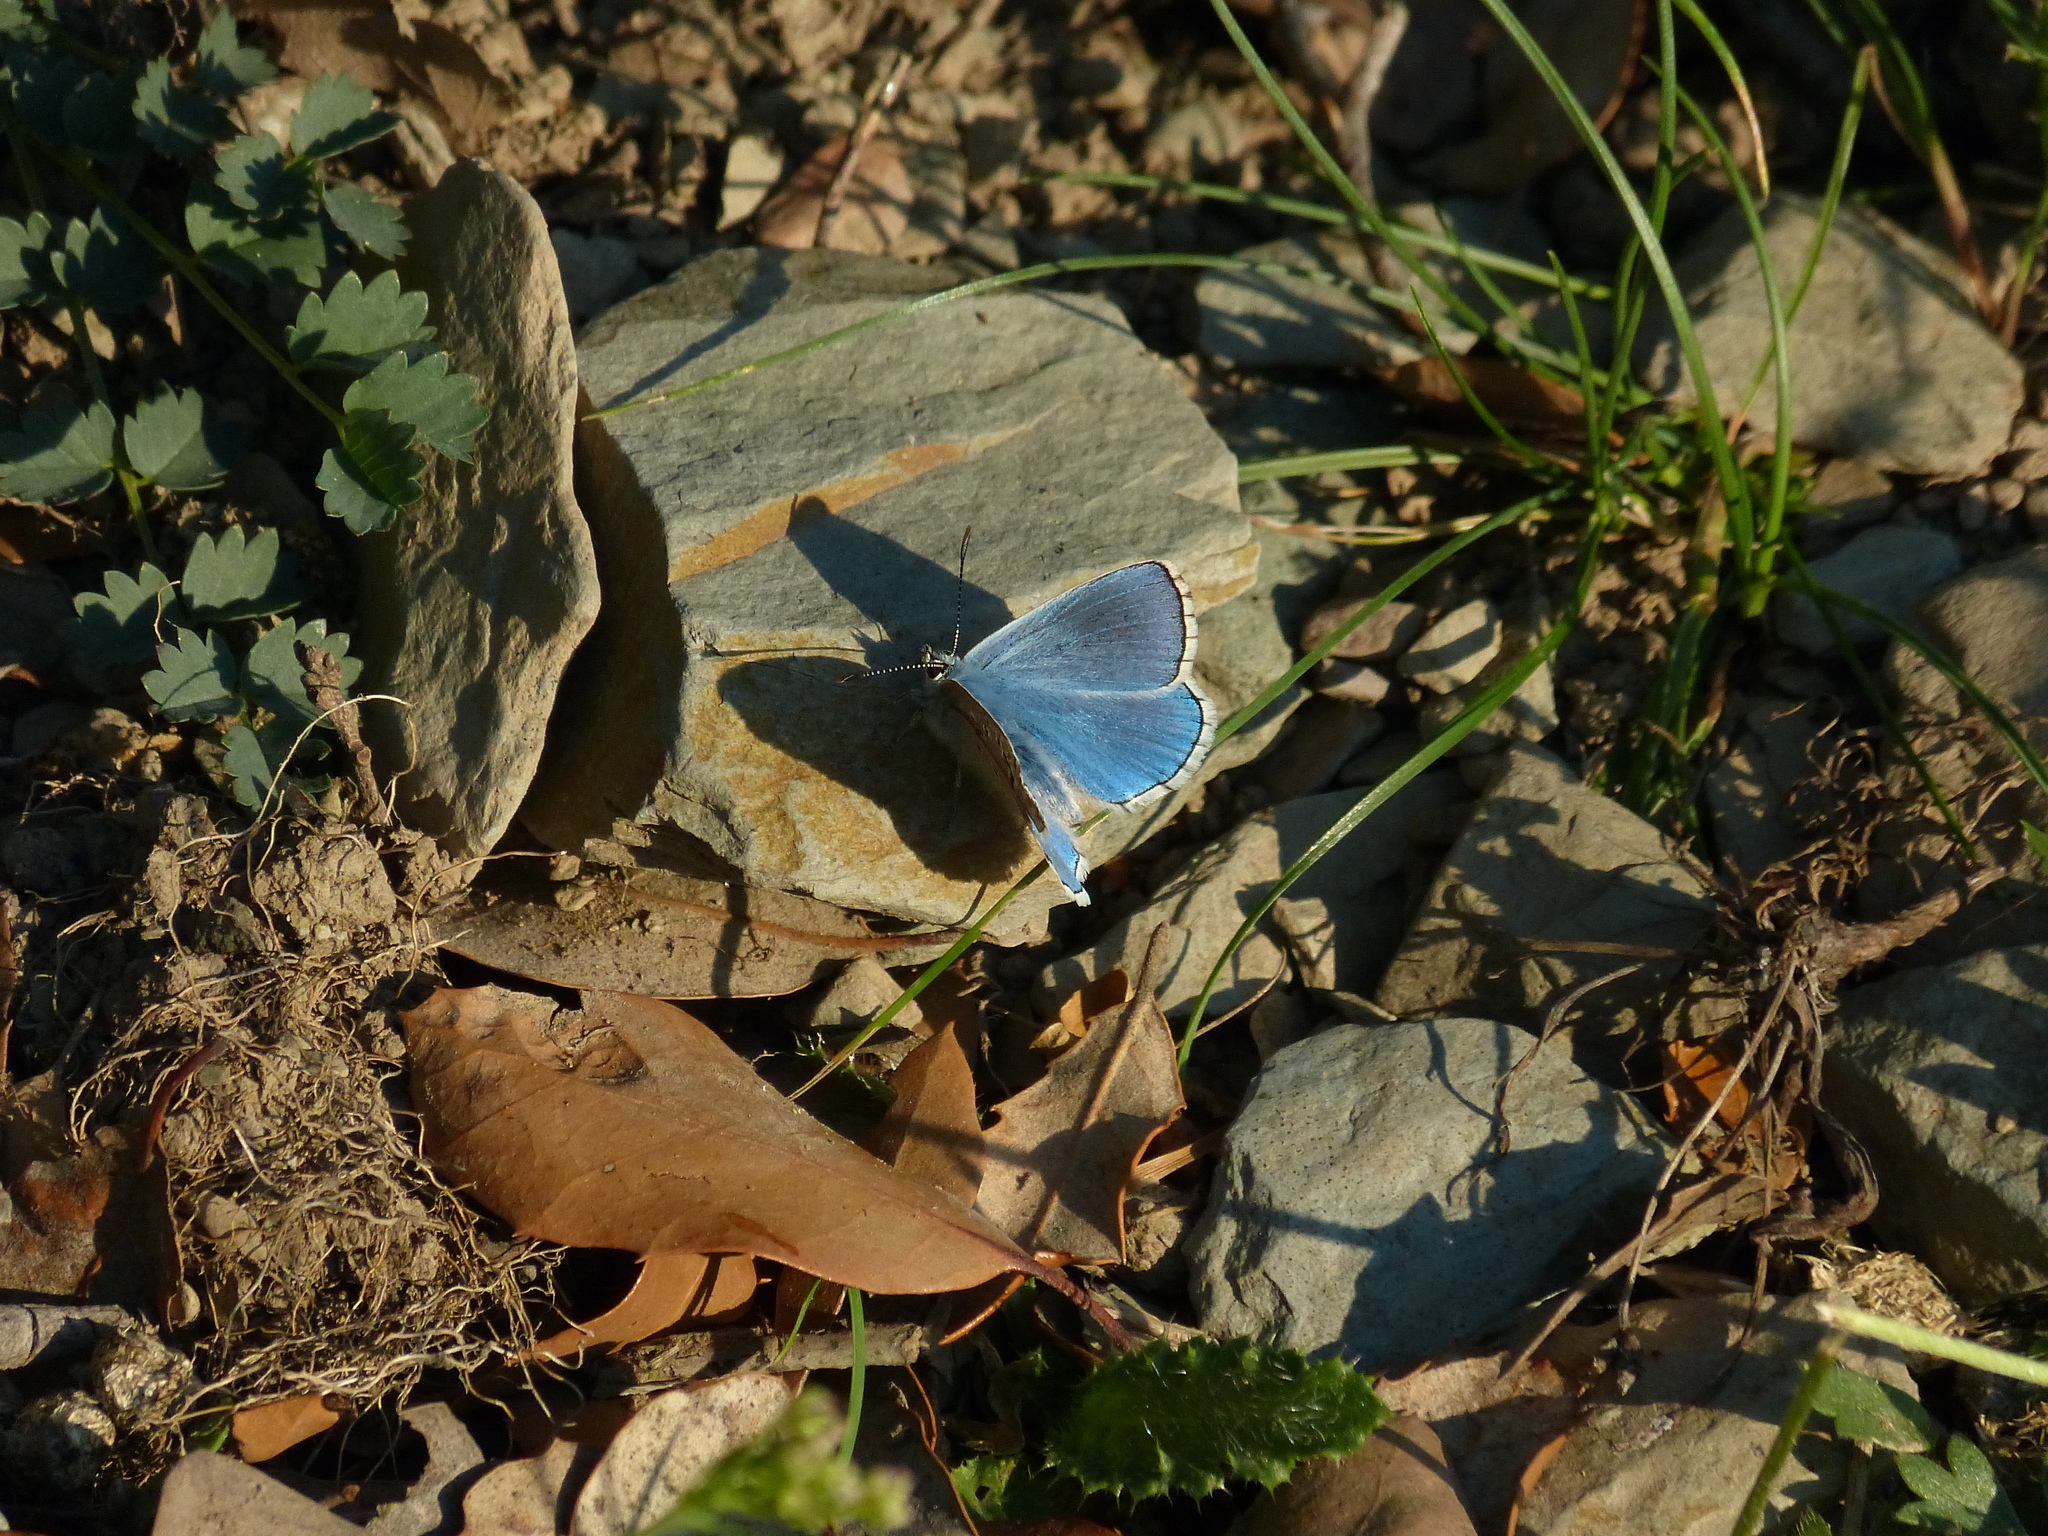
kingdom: Animalia
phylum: Arthropoda
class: Insecta
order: Lepidoptera
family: Lycaenidae
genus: Lysandra
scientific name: Lysandra bellargus
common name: Adonis blue
